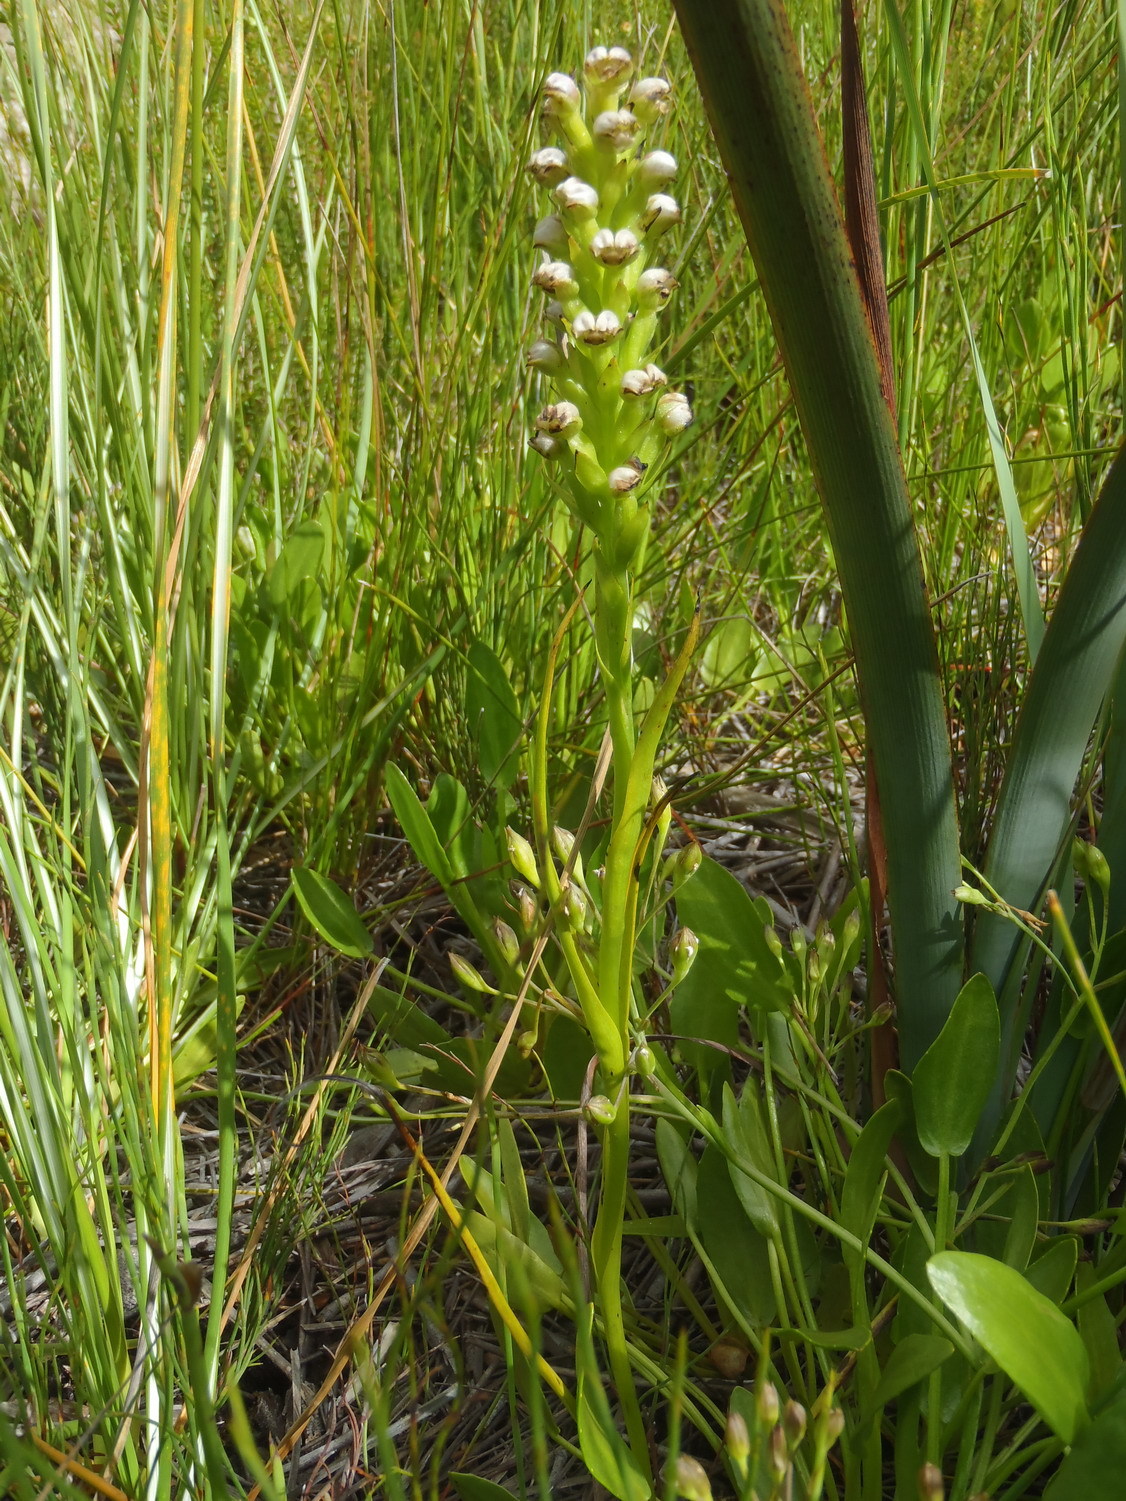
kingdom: Plantae
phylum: Tracheophyta
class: Liliopsida
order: Asparagales
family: Orchidaceae
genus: Evotella
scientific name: Evotella carnosa
